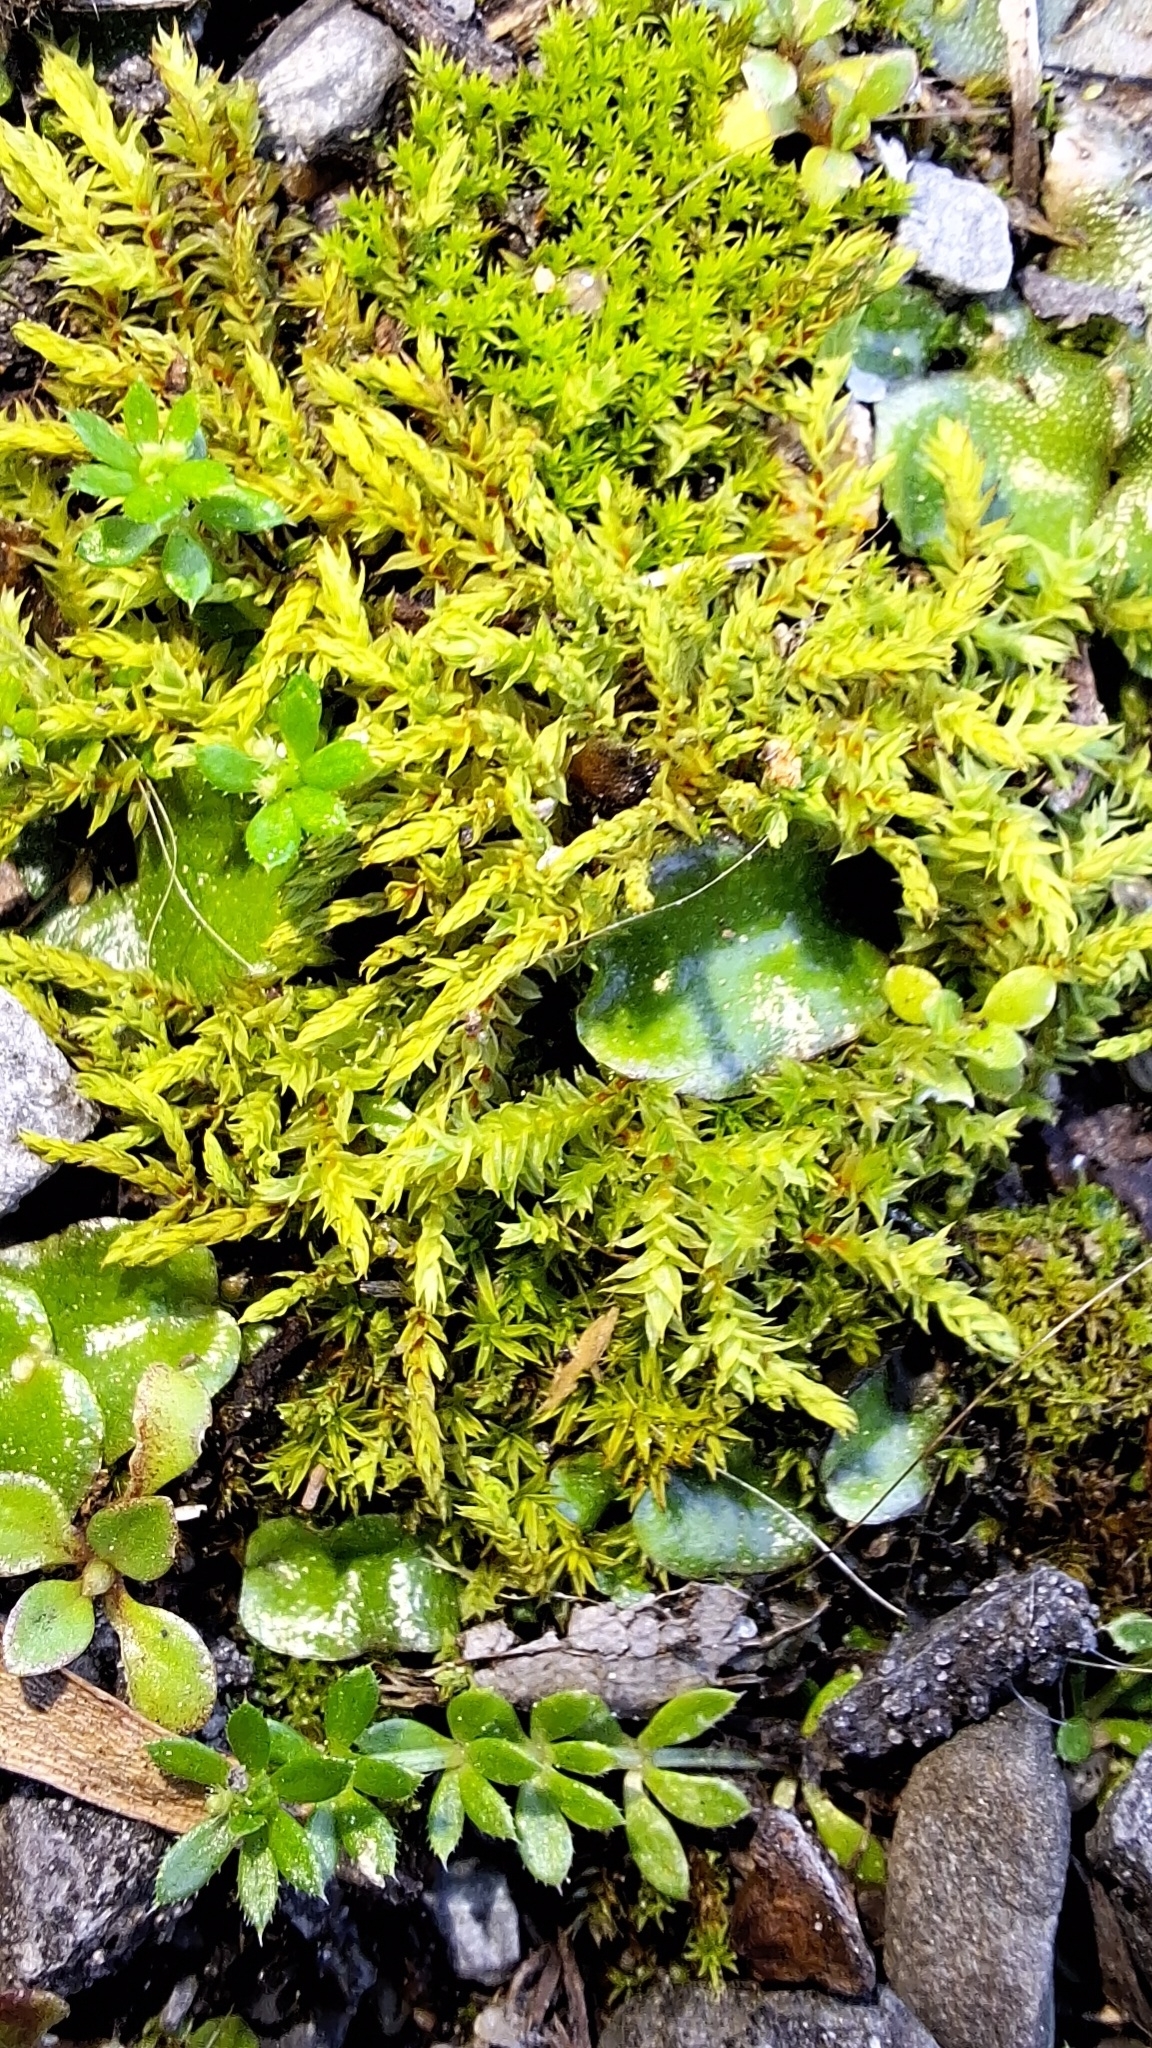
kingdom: Plantae
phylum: Bryophyta
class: Bryopsida
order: Pottiales
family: Pottiaceae
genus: Triquetrella
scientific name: Triquetrella papillata
